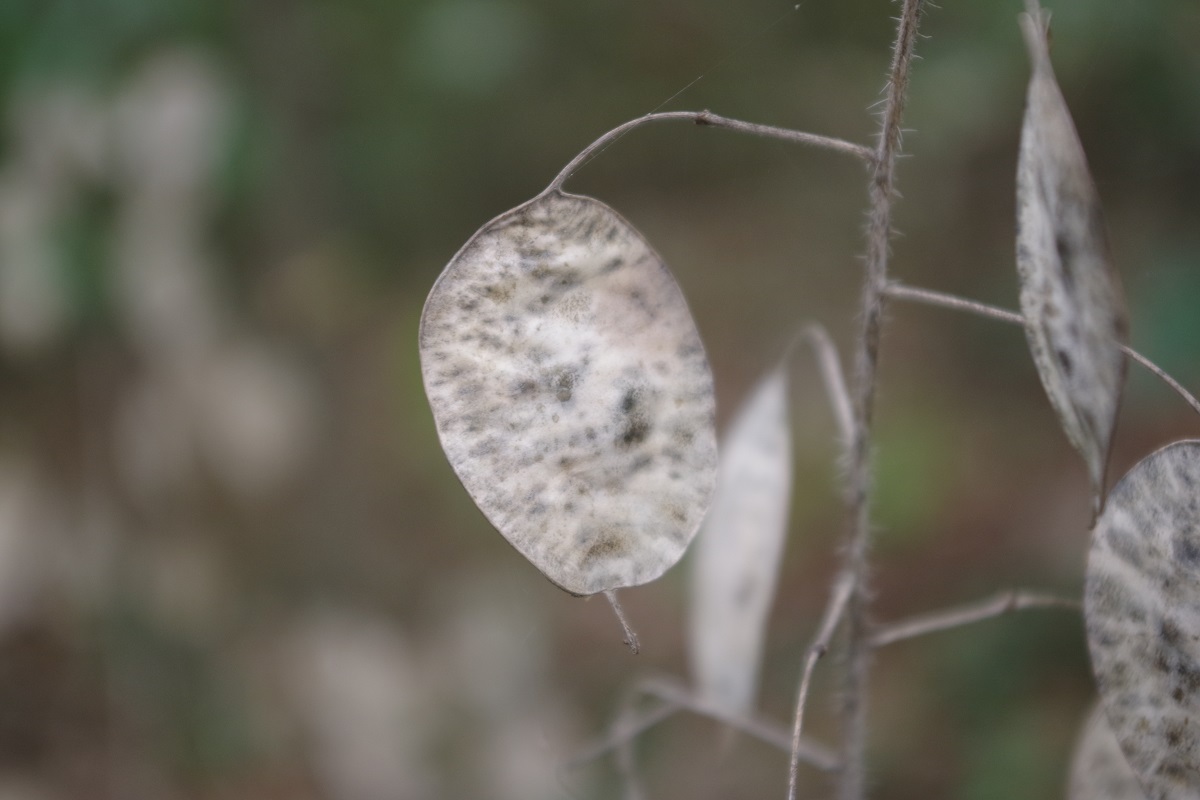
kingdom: Plantae
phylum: Tracheophyta
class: Magnoliopsida
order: Brassicales
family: Brassicaceae
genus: Lunaria
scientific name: Lunaria annua
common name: Honesty
